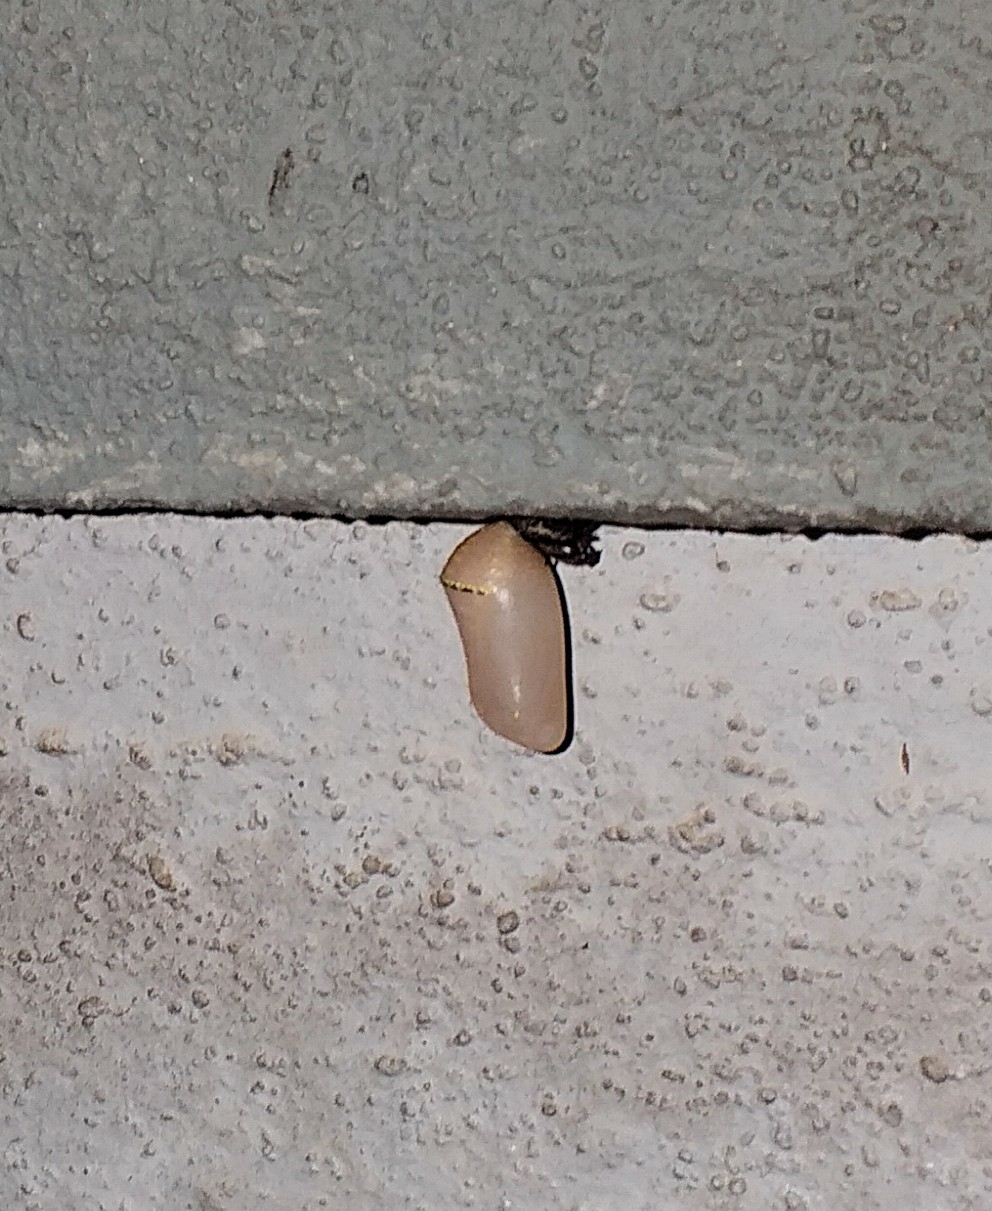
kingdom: Animalia
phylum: Arthropoda
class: Insecta
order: Lepidoptera
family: Nymphalidae
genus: Danaus
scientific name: Danaus chrysippus
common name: Plain tiger
